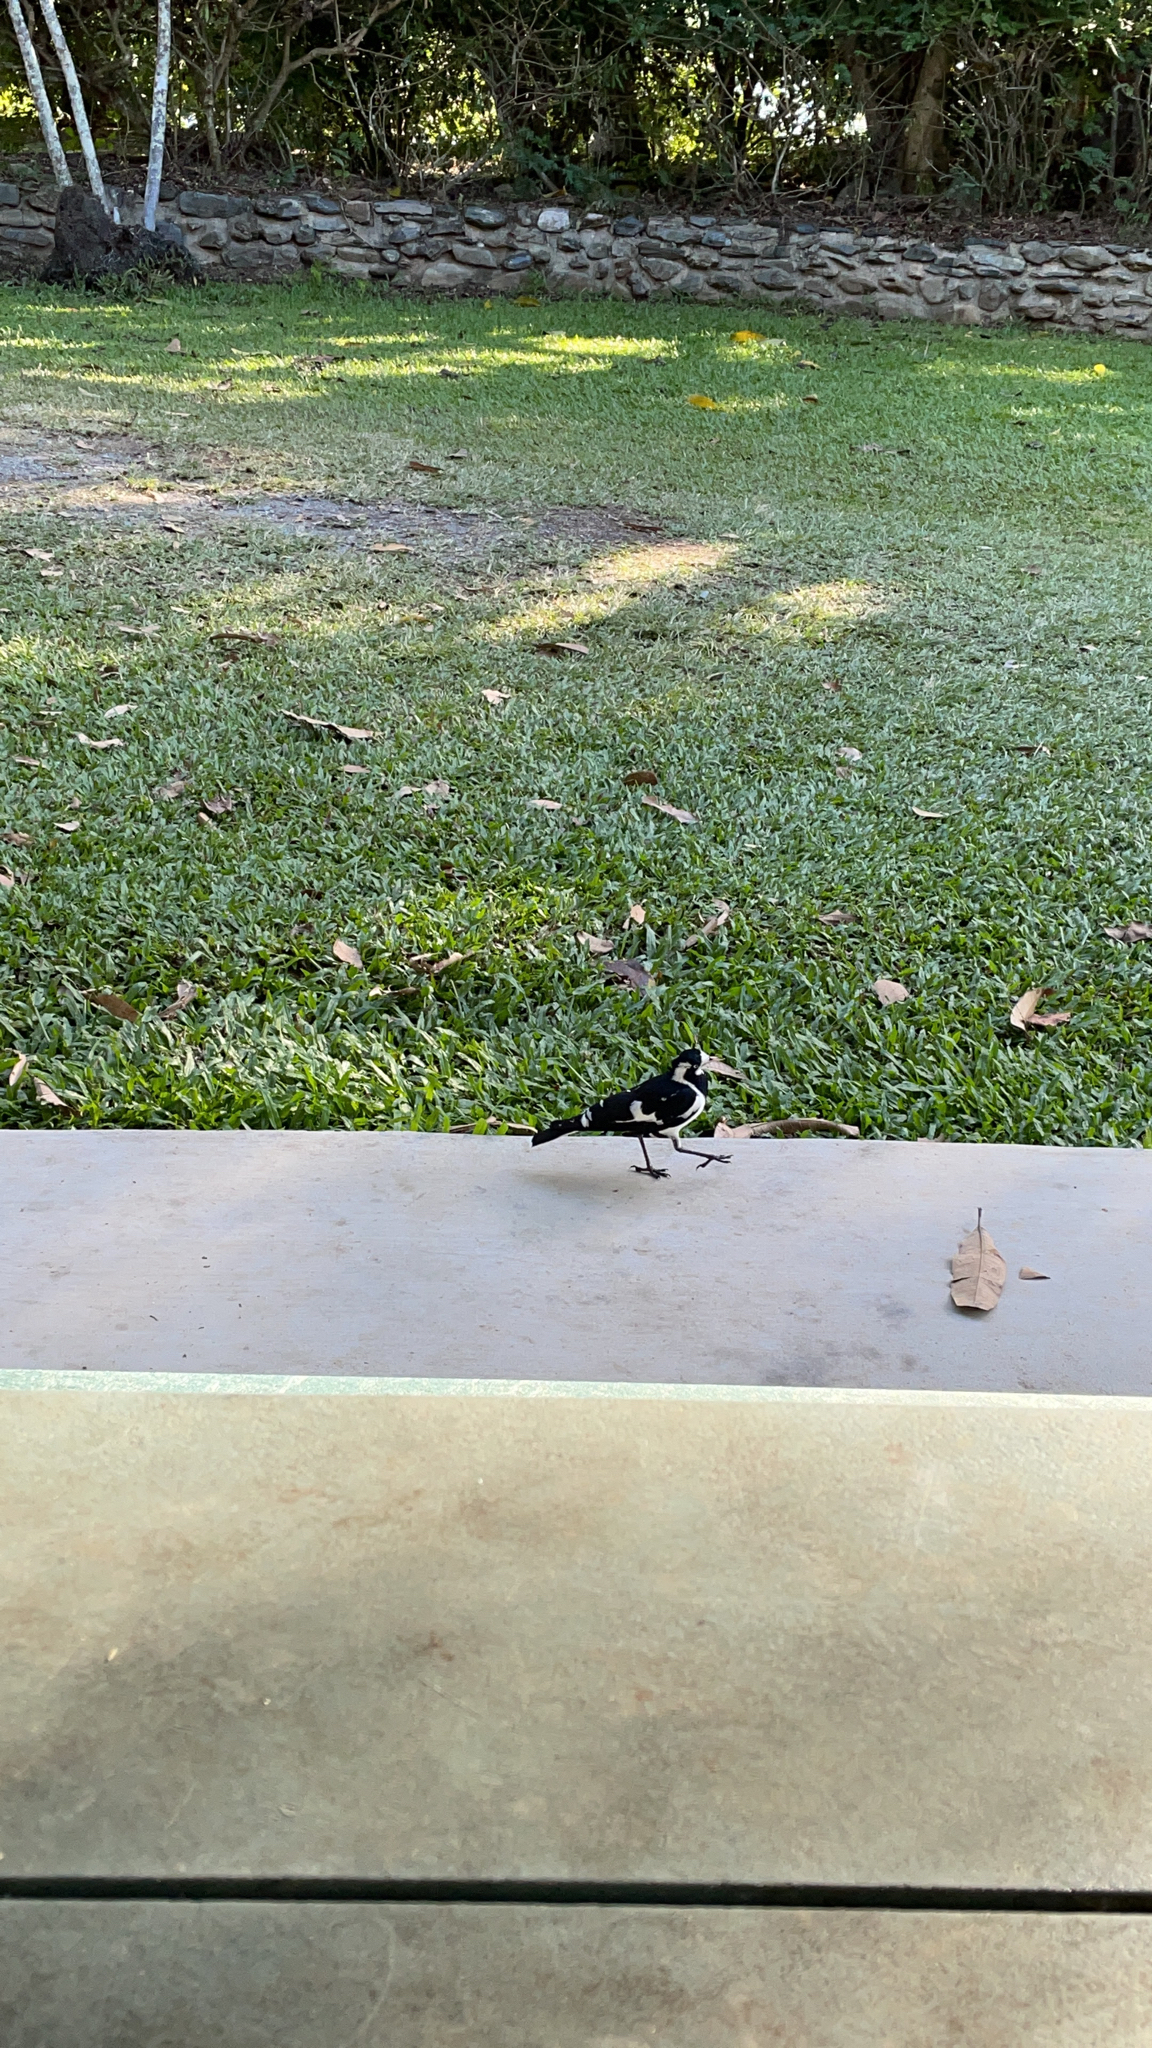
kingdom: Animalia
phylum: Chordata
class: Aves
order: Passeriformes
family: Monarchidae
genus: Grallina
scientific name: Grallina cyanoleuca
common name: Magpie-lark
